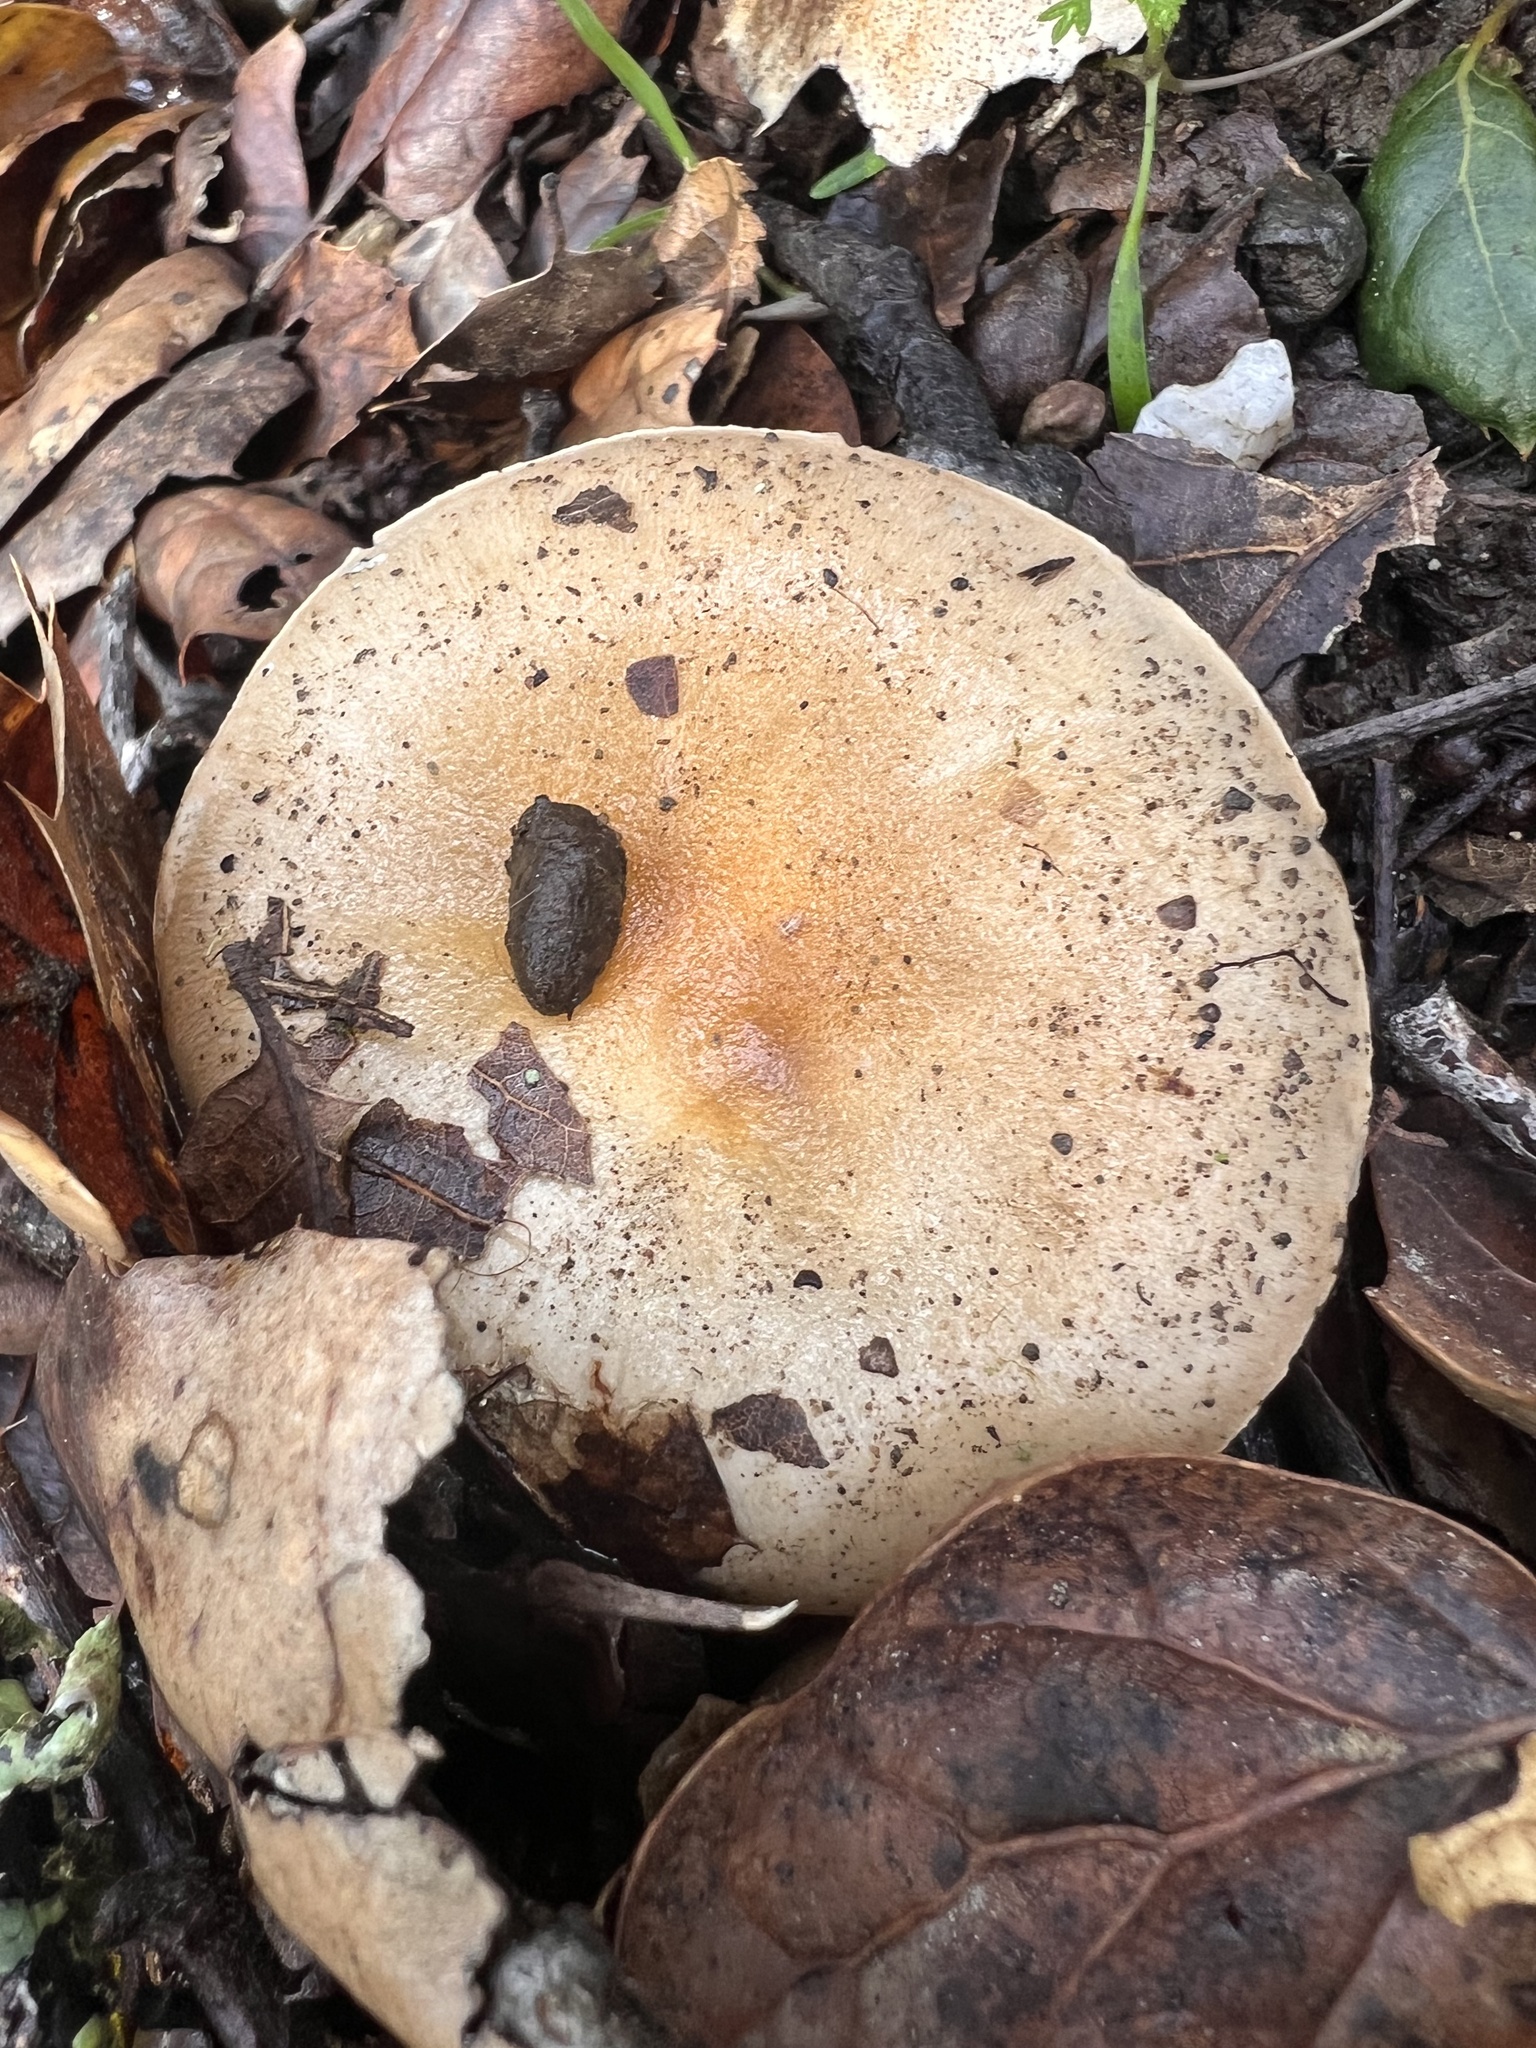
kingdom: Fungi
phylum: Basidiomycota
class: Agaricomycetes
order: Agaricales
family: Hygrophoraceae
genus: Hygrophorus
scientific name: Hygrophorus roseobrunneus
